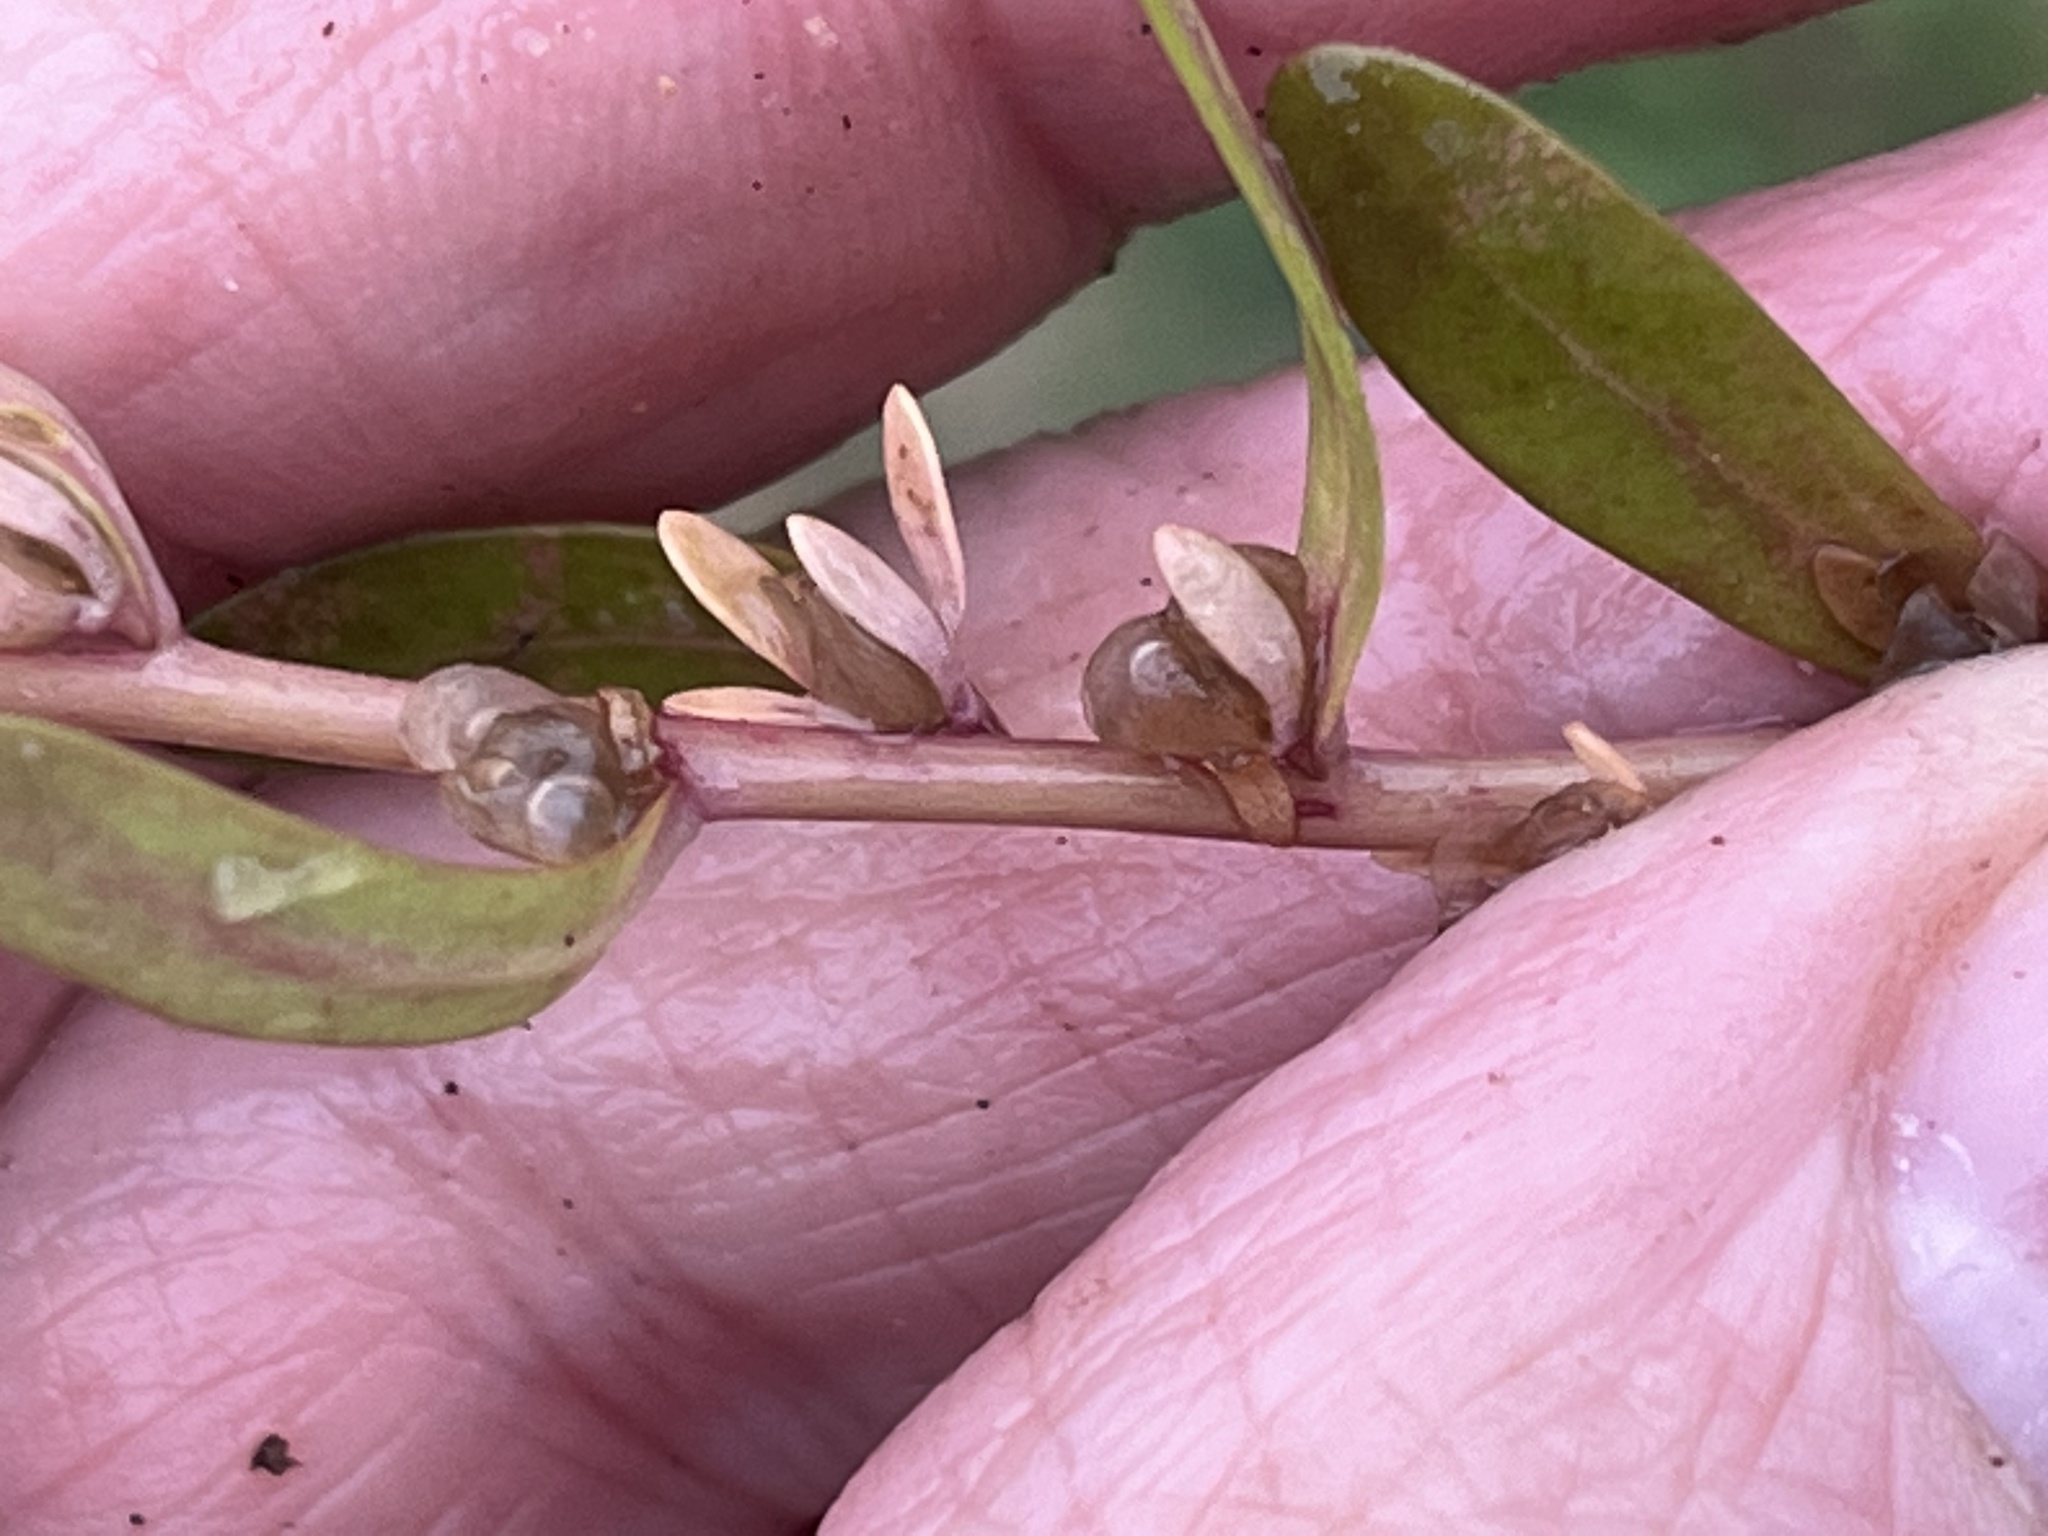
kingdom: Plantae
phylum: Tracheophyta
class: Magnoliopsida
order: Lamiales
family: Plantaginaceae
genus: Veronica
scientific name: Veronica peregrina
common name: Neckweed
